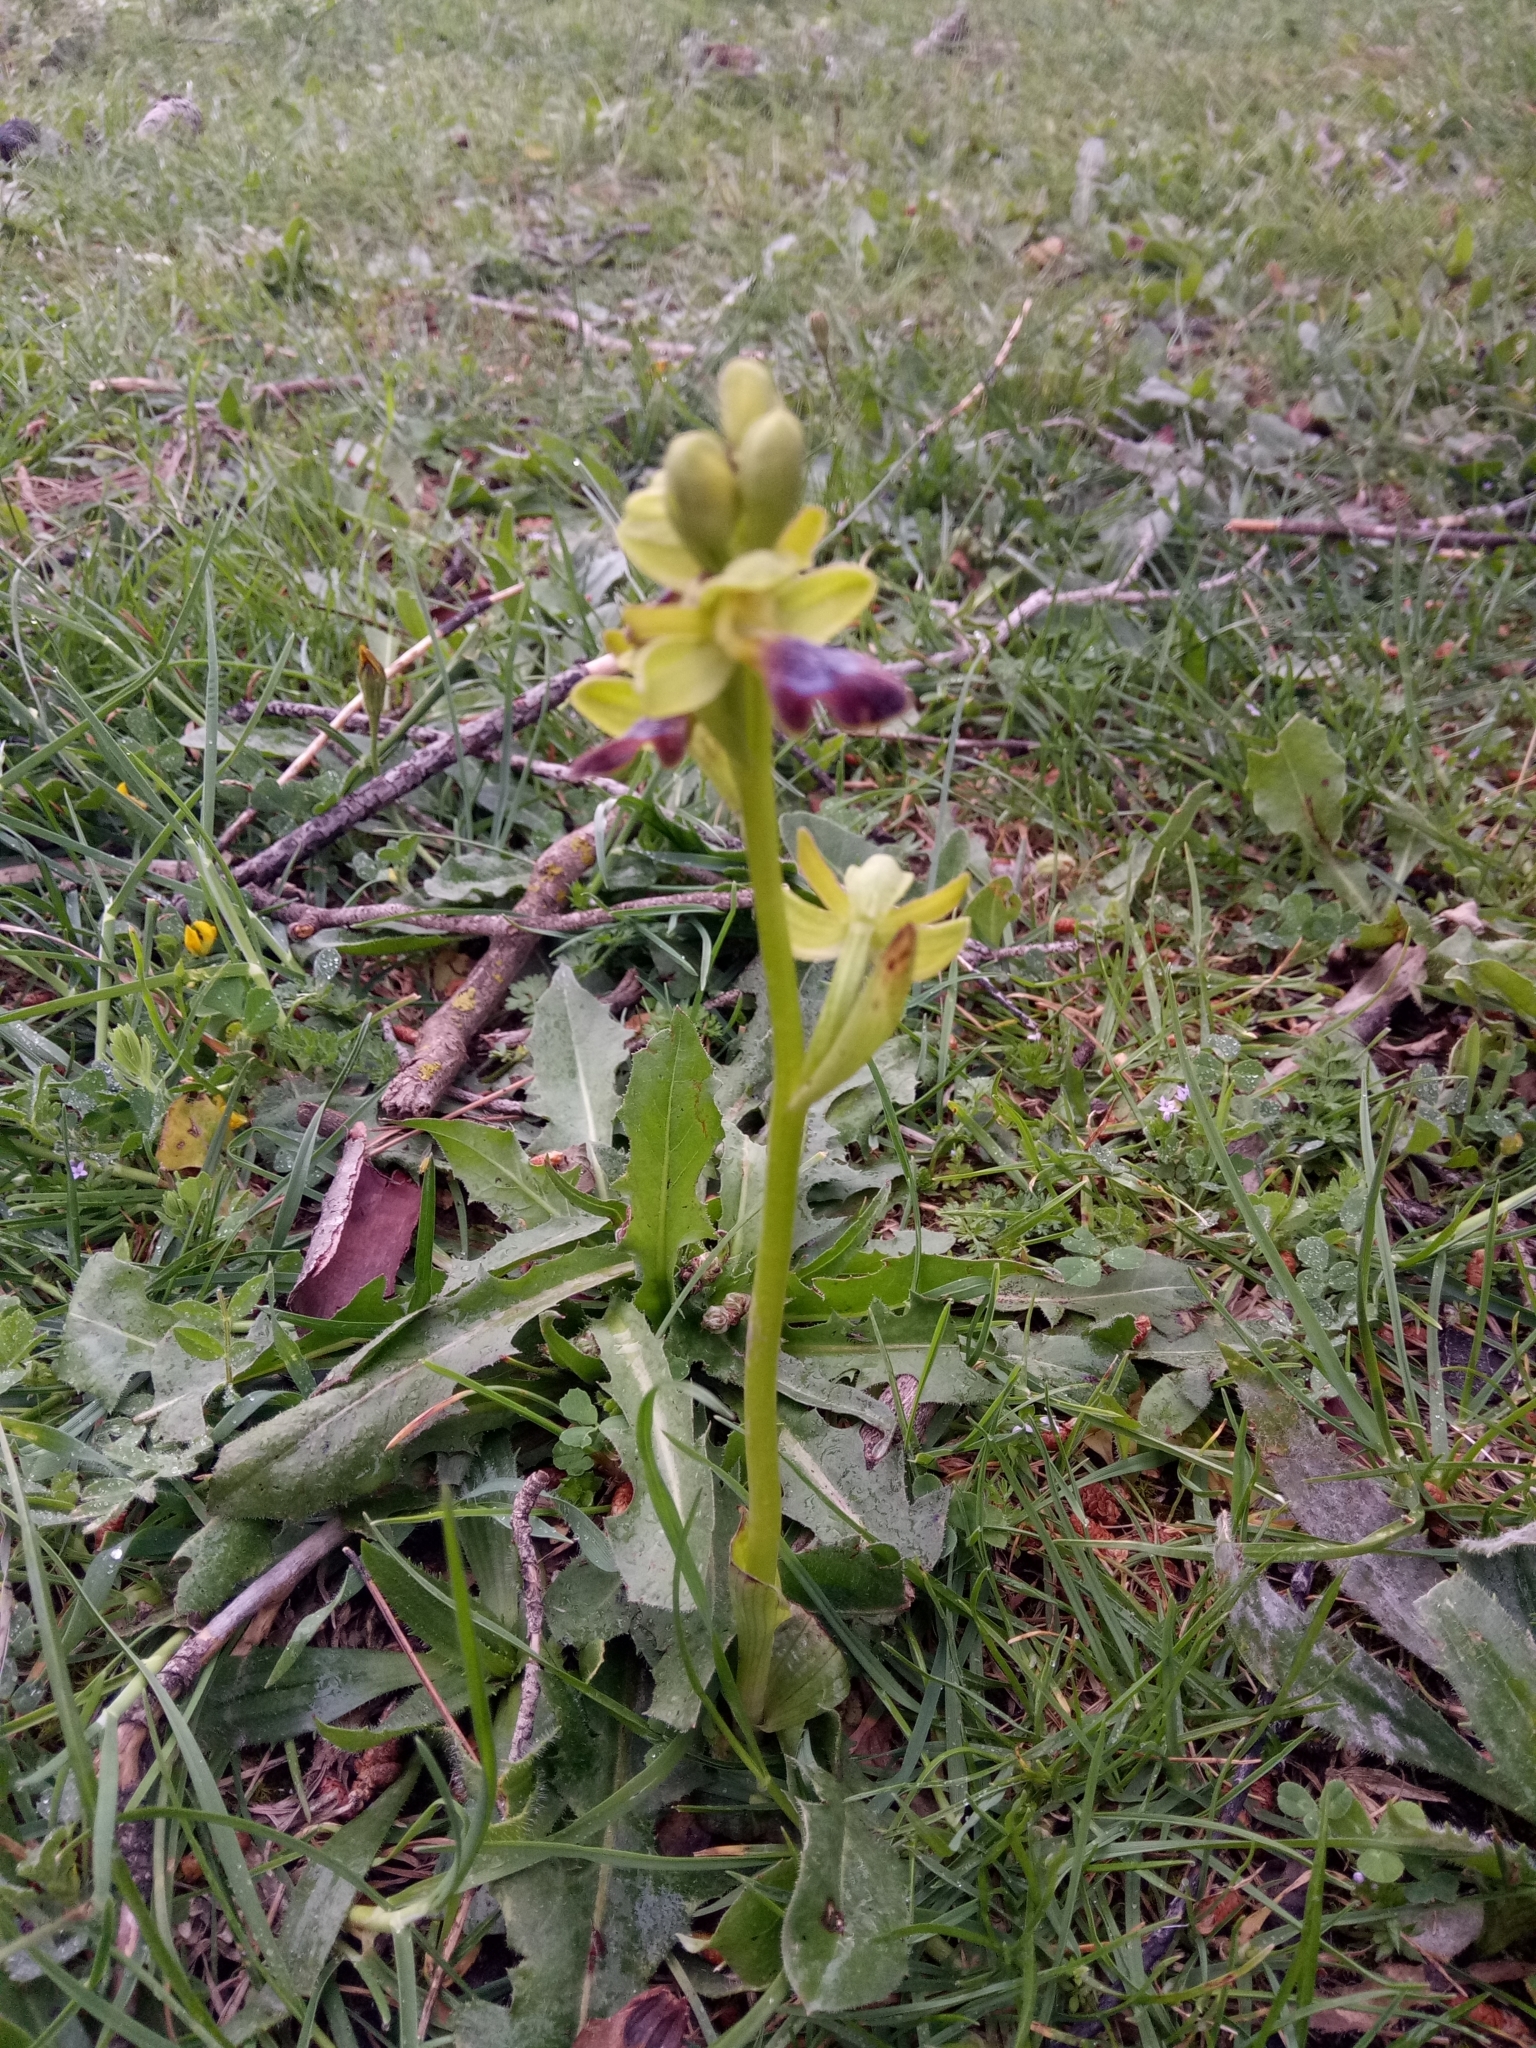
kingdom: Plantae
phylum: Tracheophyta
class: Liliopsida
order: Asparagales
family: Orchidaceae
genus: Ophrys
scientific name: Ophrys omegaifera
